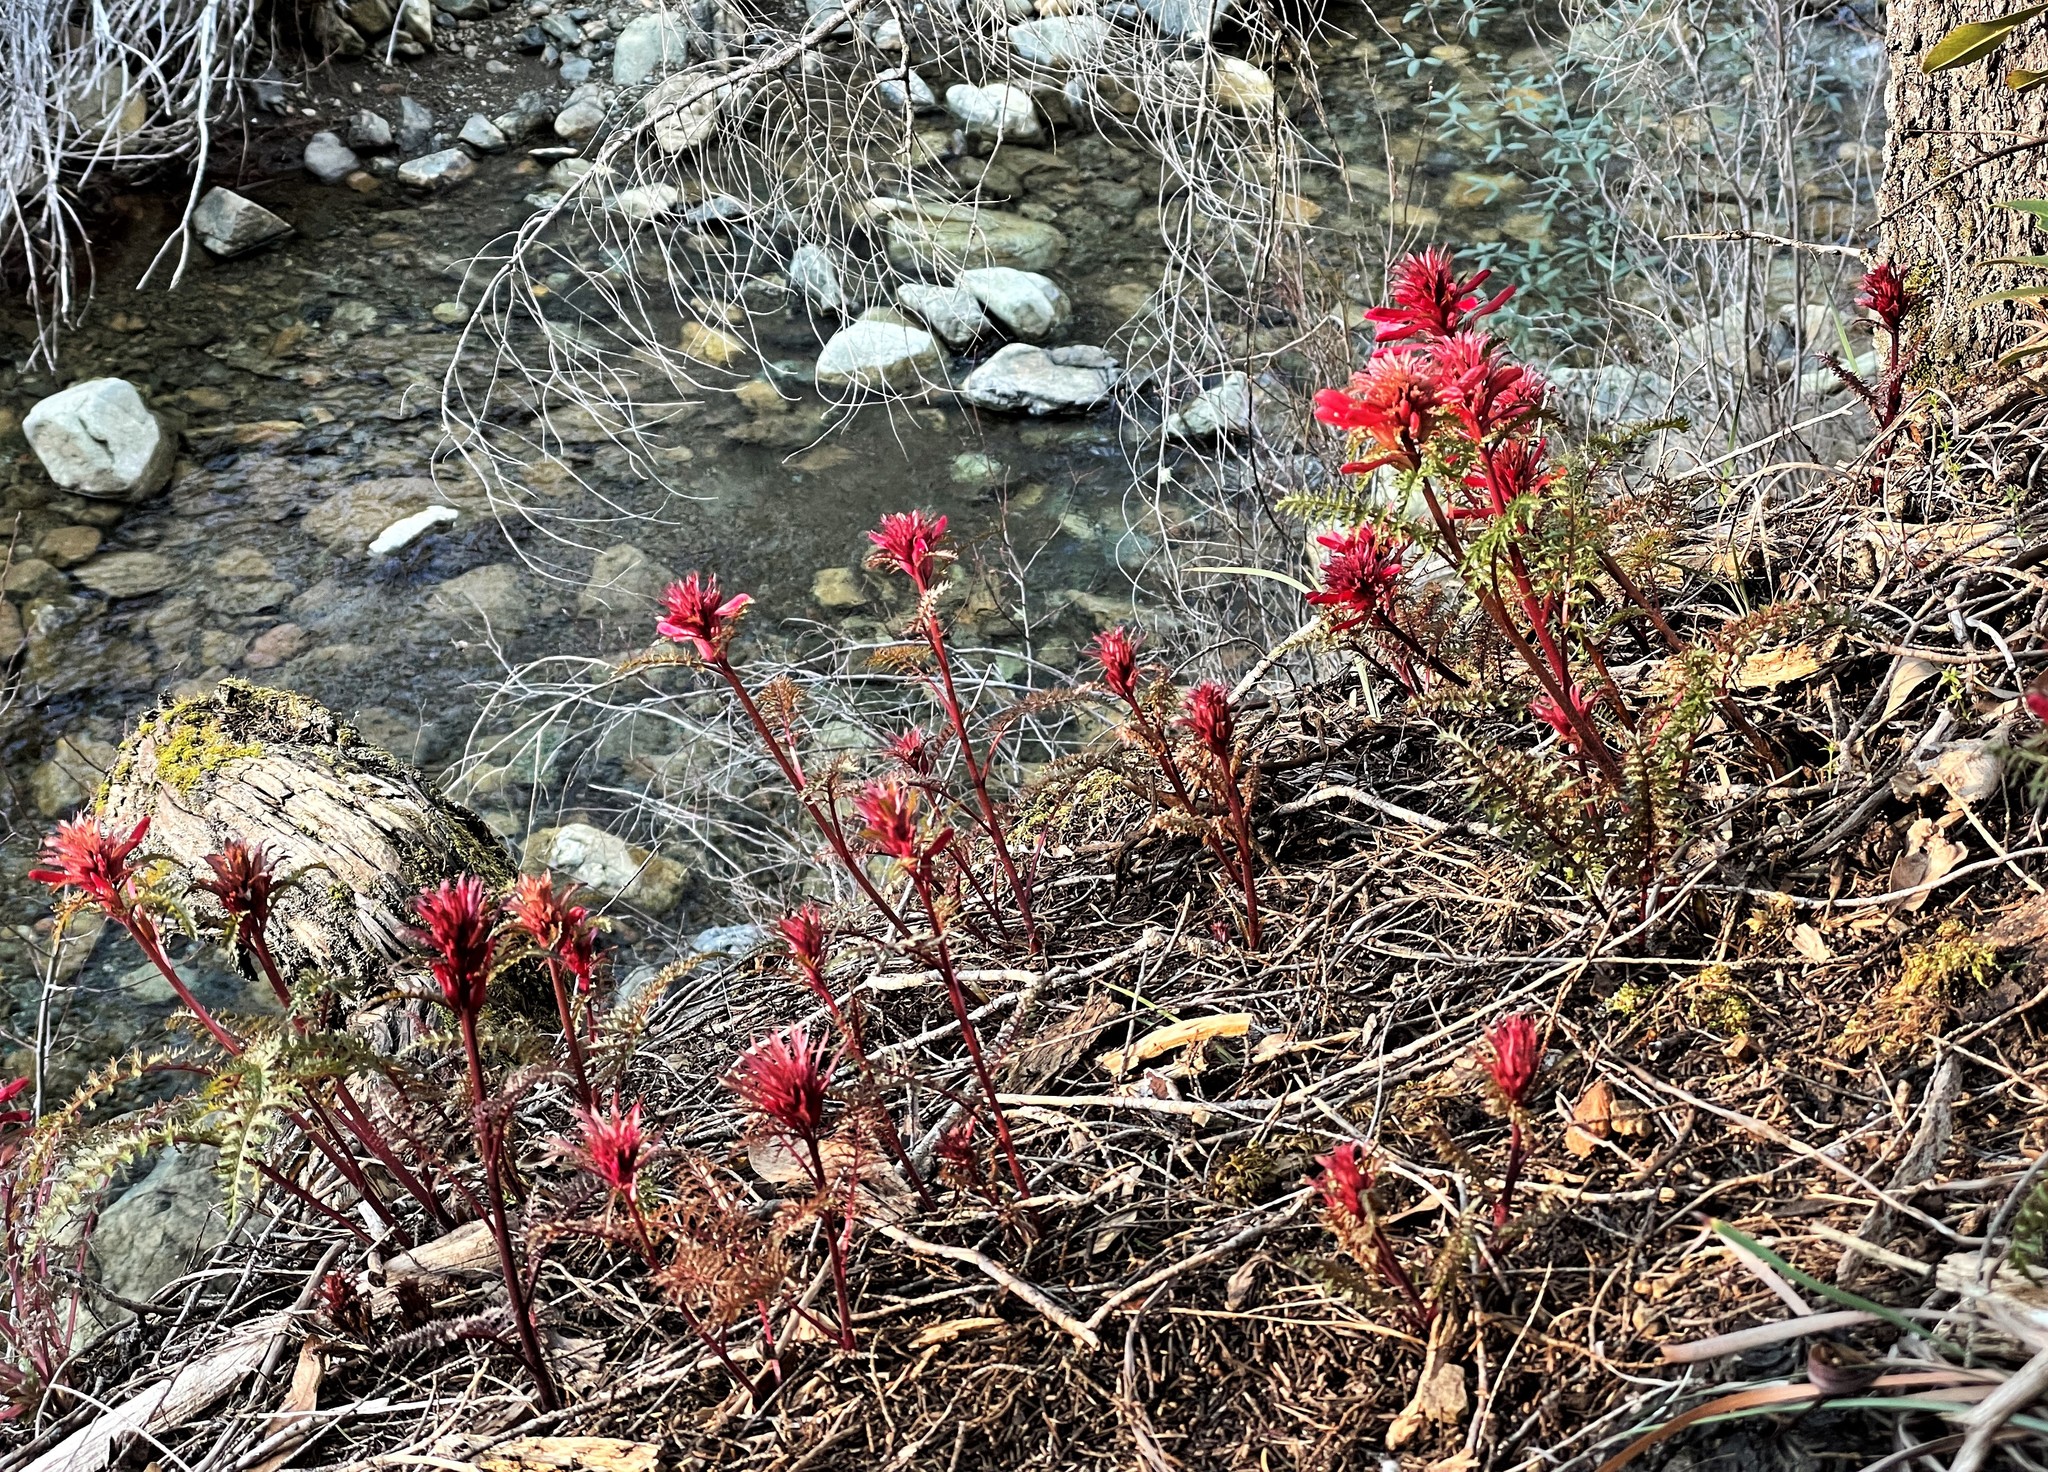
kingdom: Plantae
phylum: Tracheophyta
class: Magnoliopsida
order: Lamiales
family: Orobanchaceae
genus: Pedicularis
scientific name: Pedicularis densiflora
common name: Indian warrior
